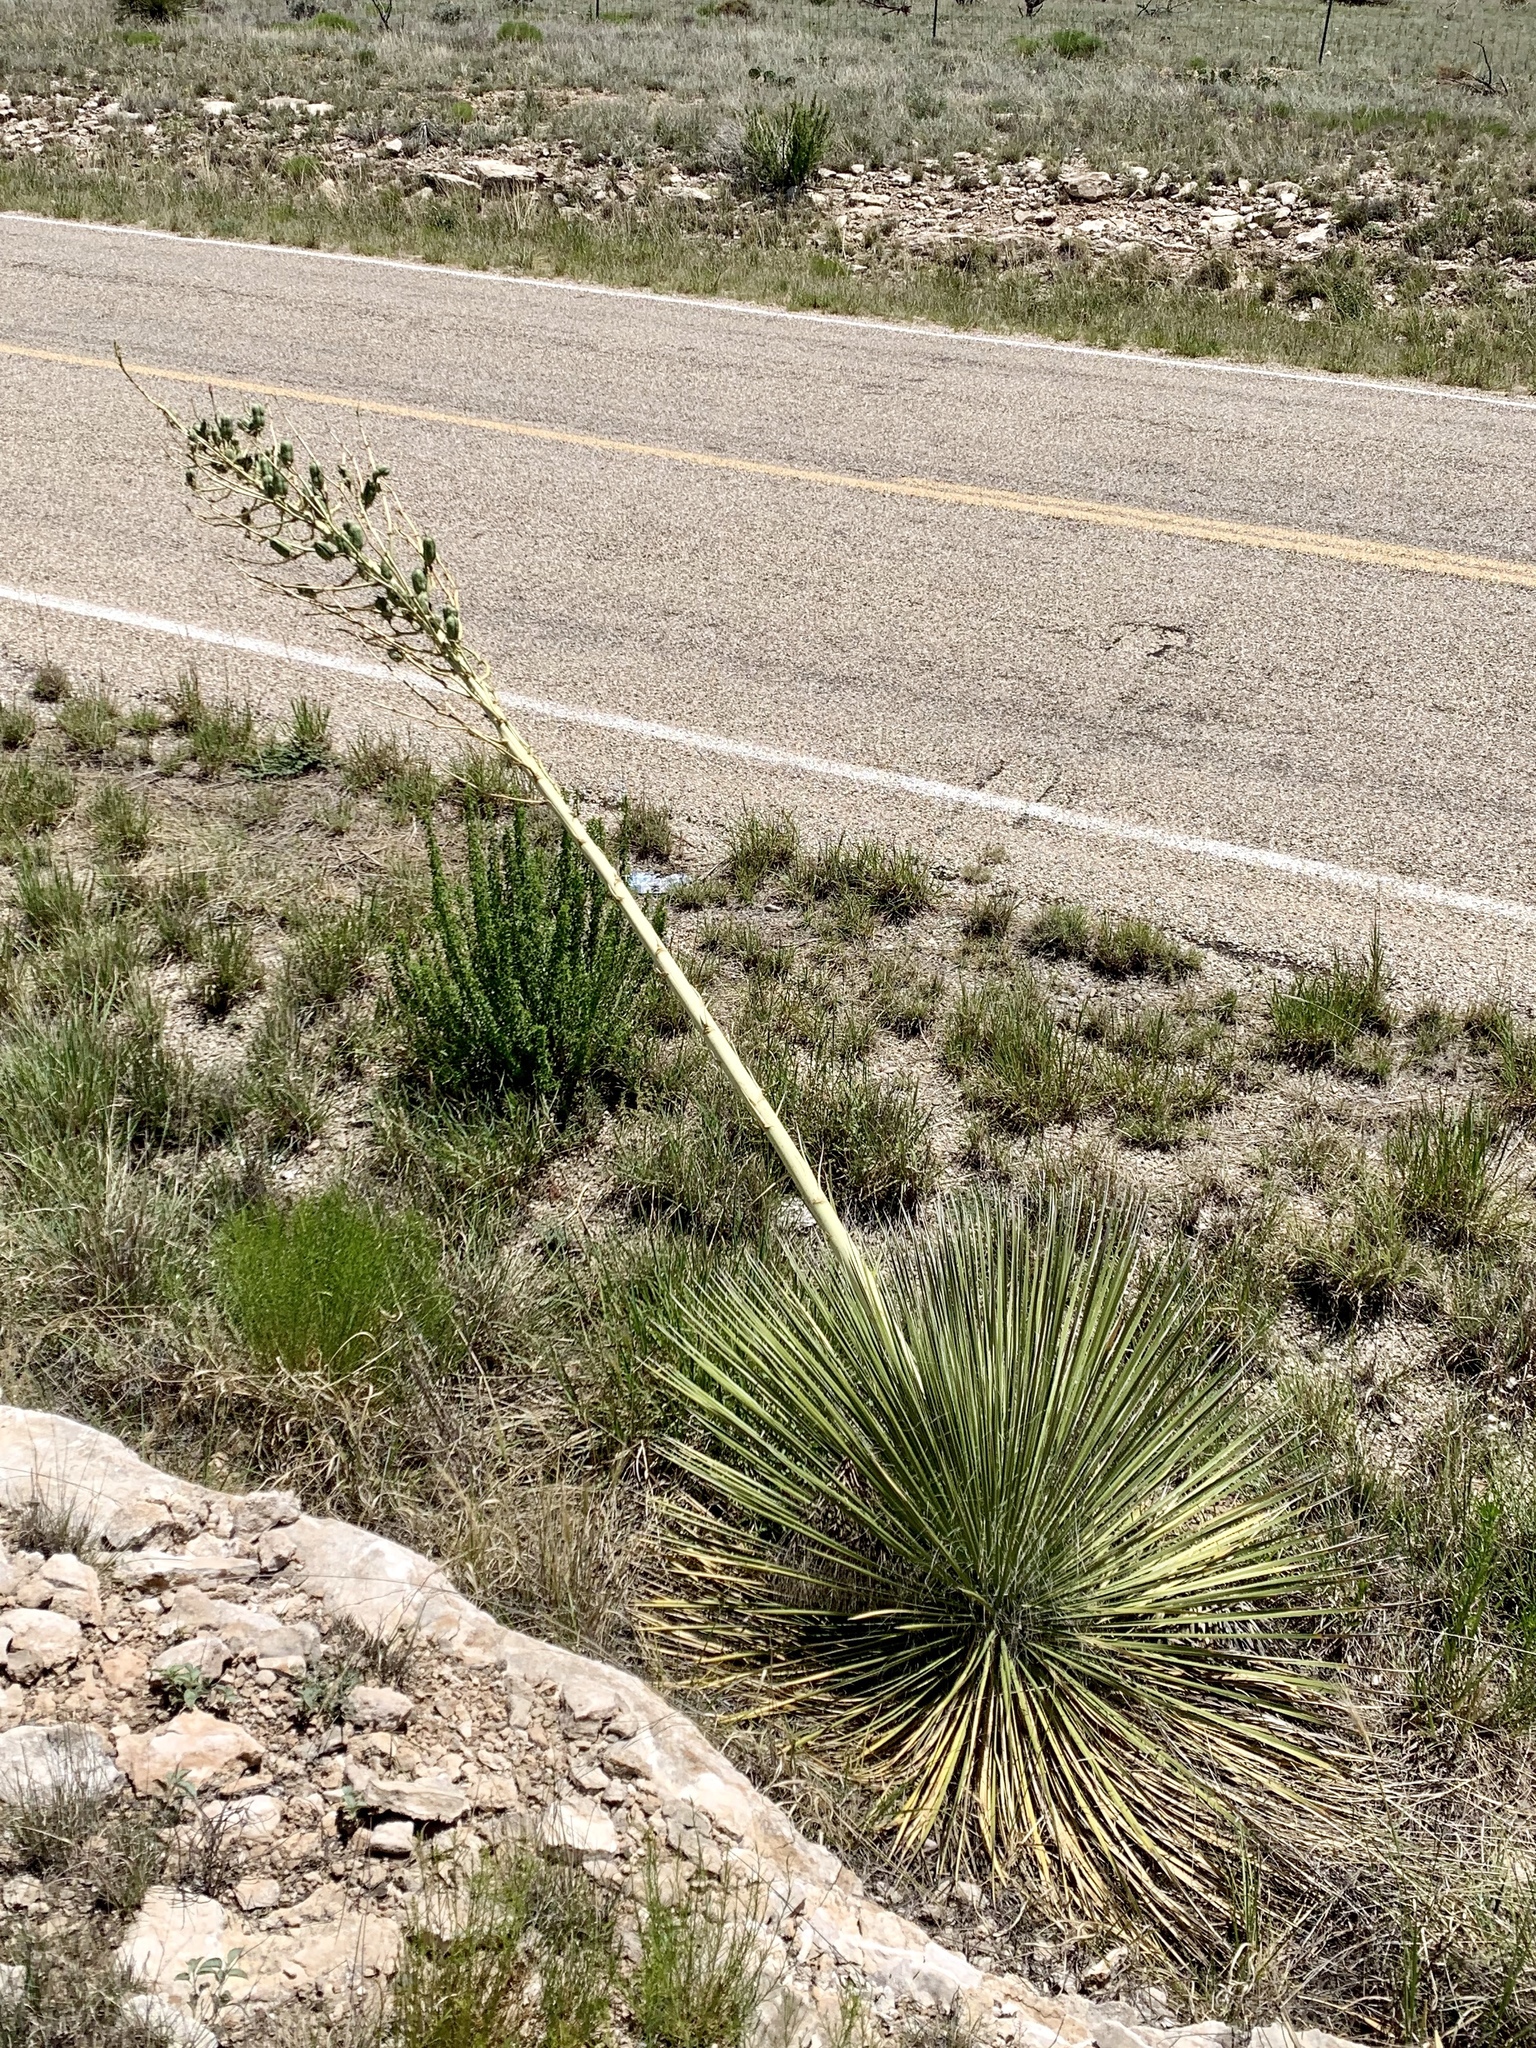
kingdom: Plantae
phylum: Tracheophyta
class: Liliopsida
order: Asparagales
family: Asparagaceae
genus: Yucca
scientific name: Yucca elata
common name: Palmella
